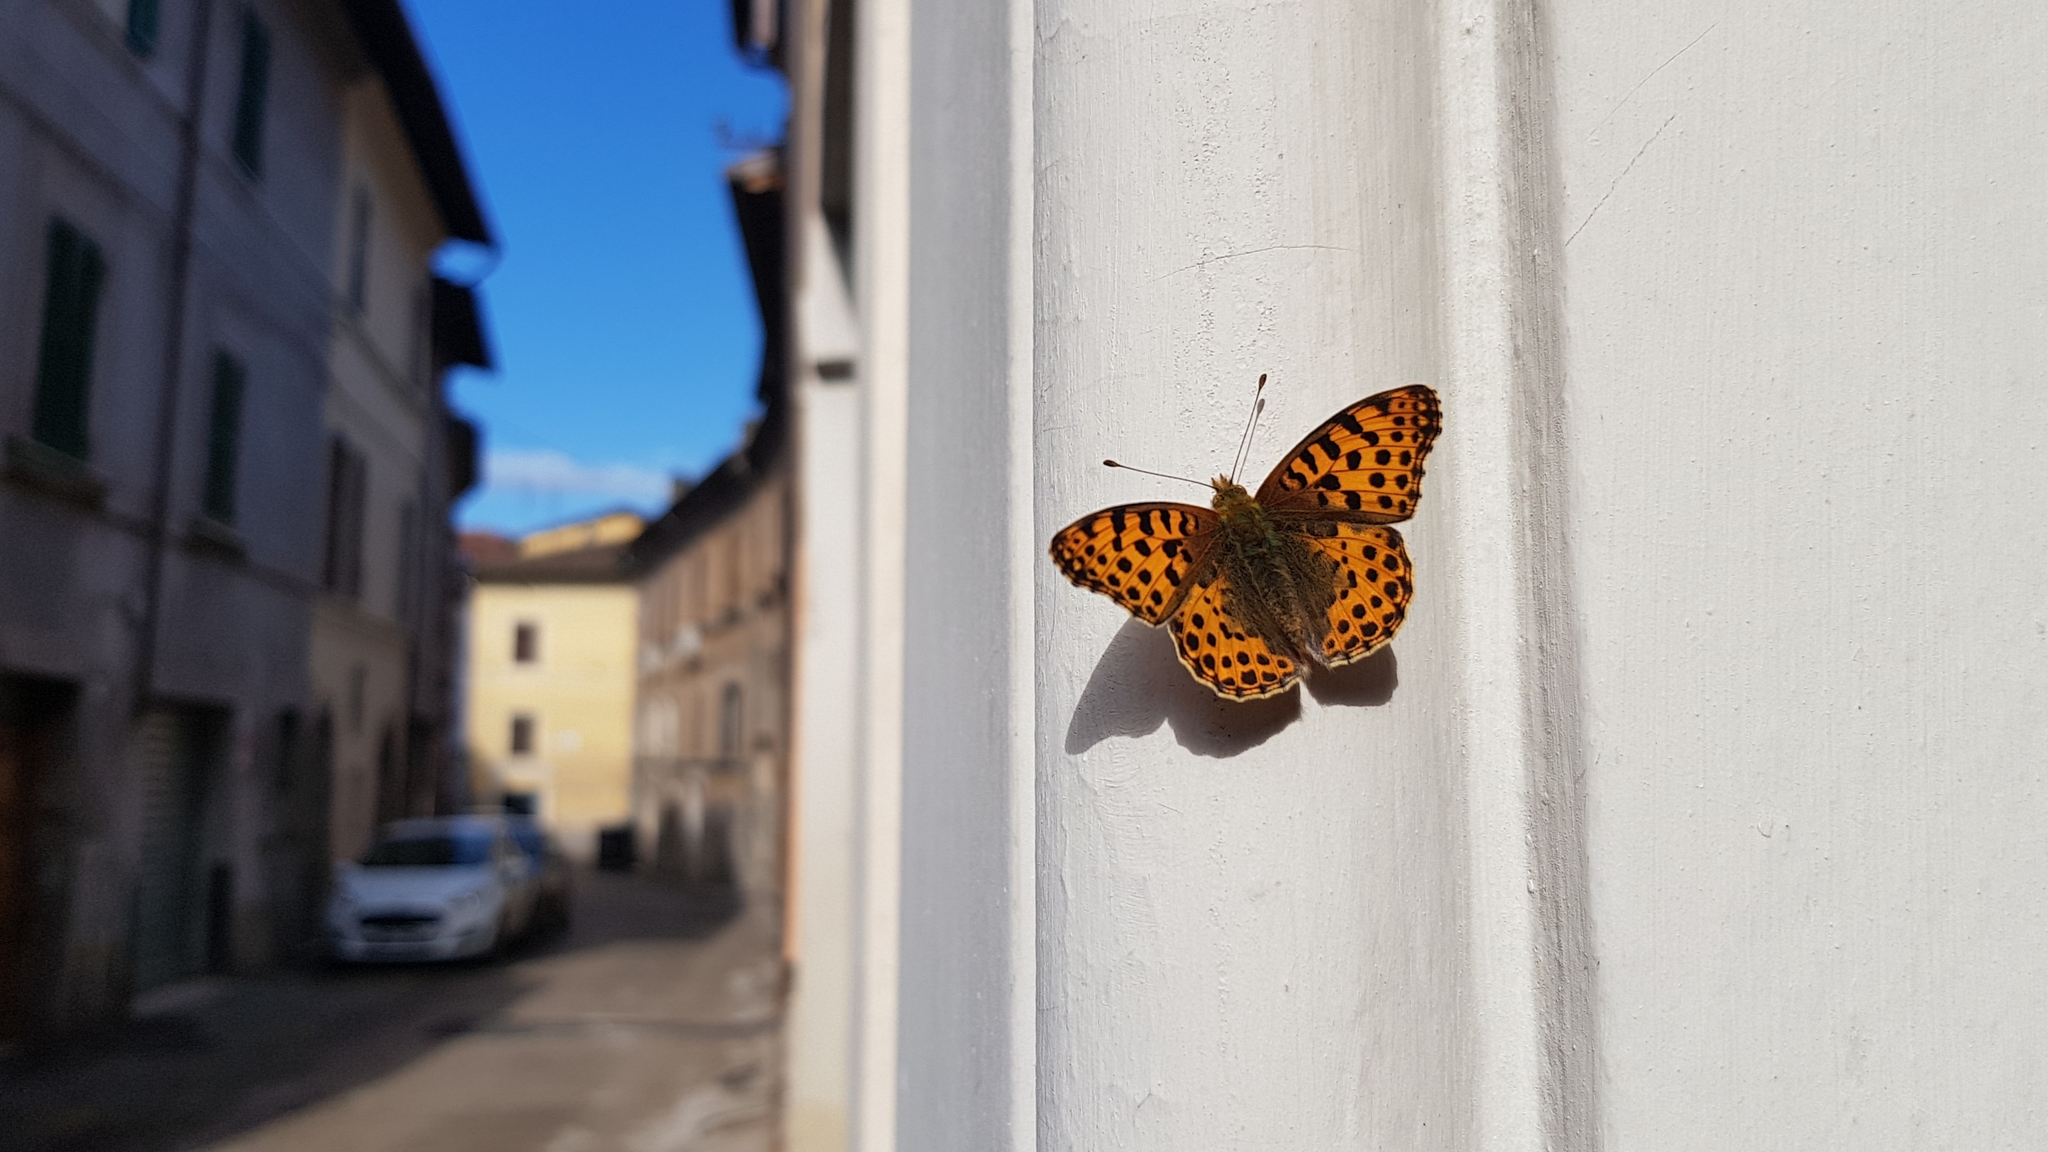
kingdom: Animalia
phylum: Arthropoda
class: Insecta
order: Lepidoptera
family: Nymphalidae
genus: Issoria
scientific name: Issoria lathonia
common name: Queen of spain fritillary
